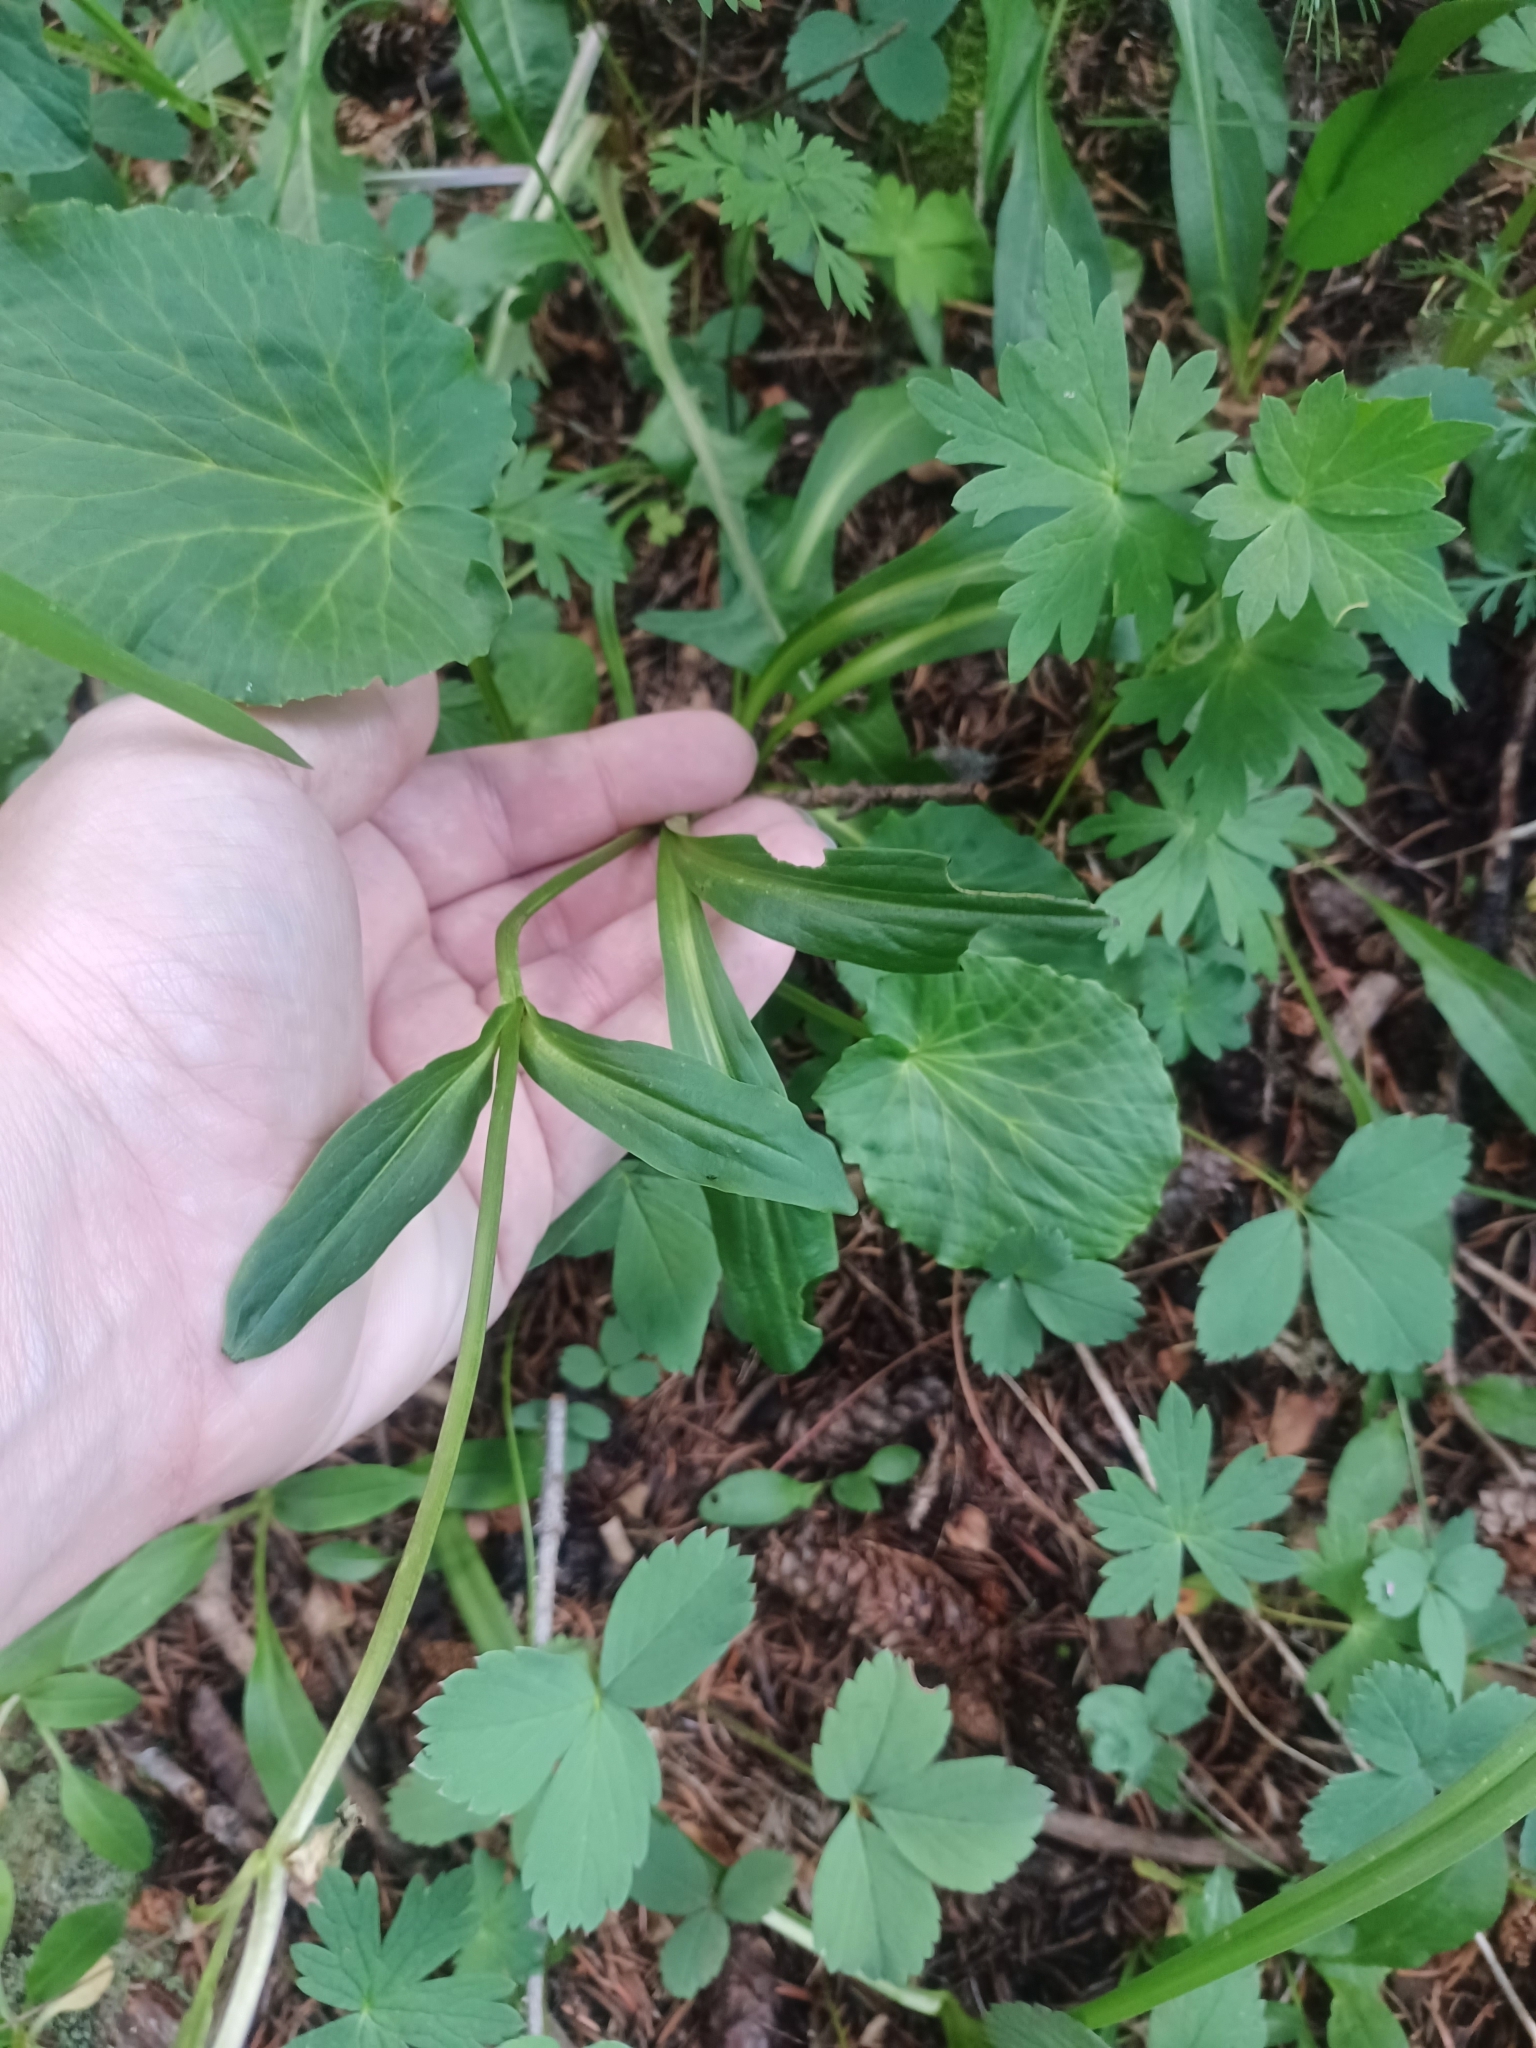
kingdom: Plantae
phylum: Tracheophyta
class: Magnoliopsida
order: Gentianales
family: Gentianaceae
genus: Swertia
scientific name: Swertia perennis
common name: Alpine bog swertia
